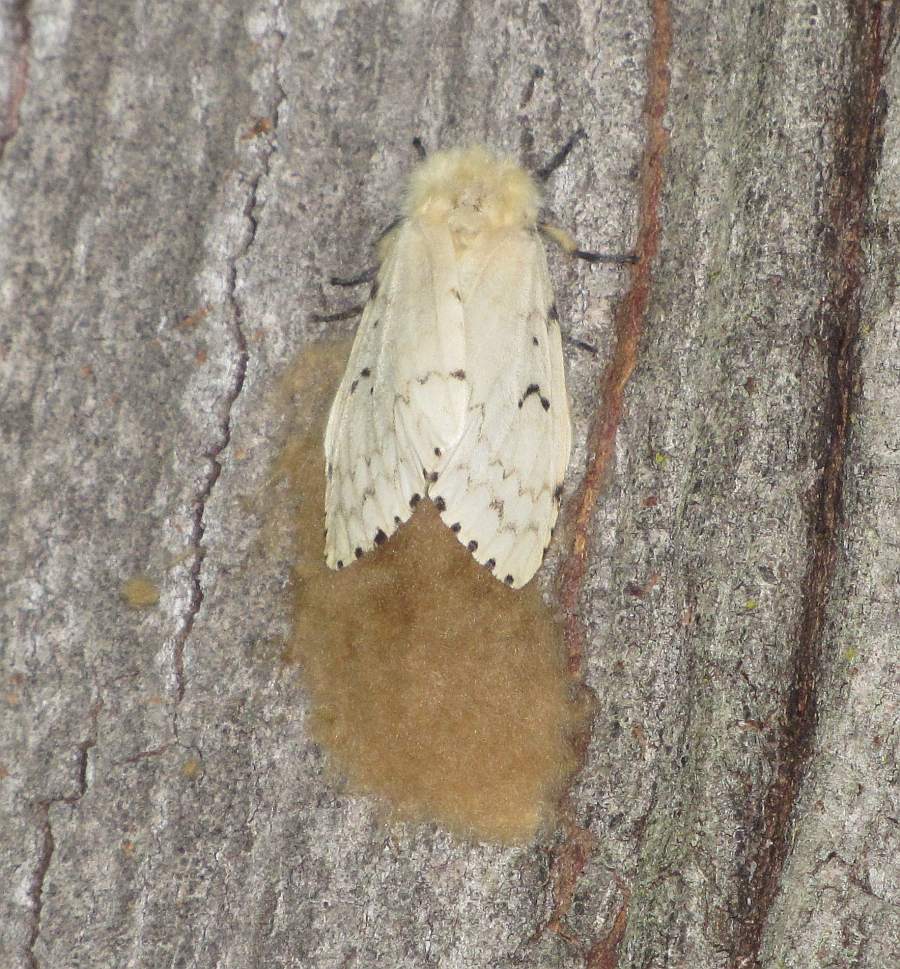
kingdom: Animalia
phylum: Arthropoda
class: Insecta
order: Lepidoptera
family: Erebidae
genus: Lymantria
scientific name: Lymantria dispar
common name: Gypsy moth
